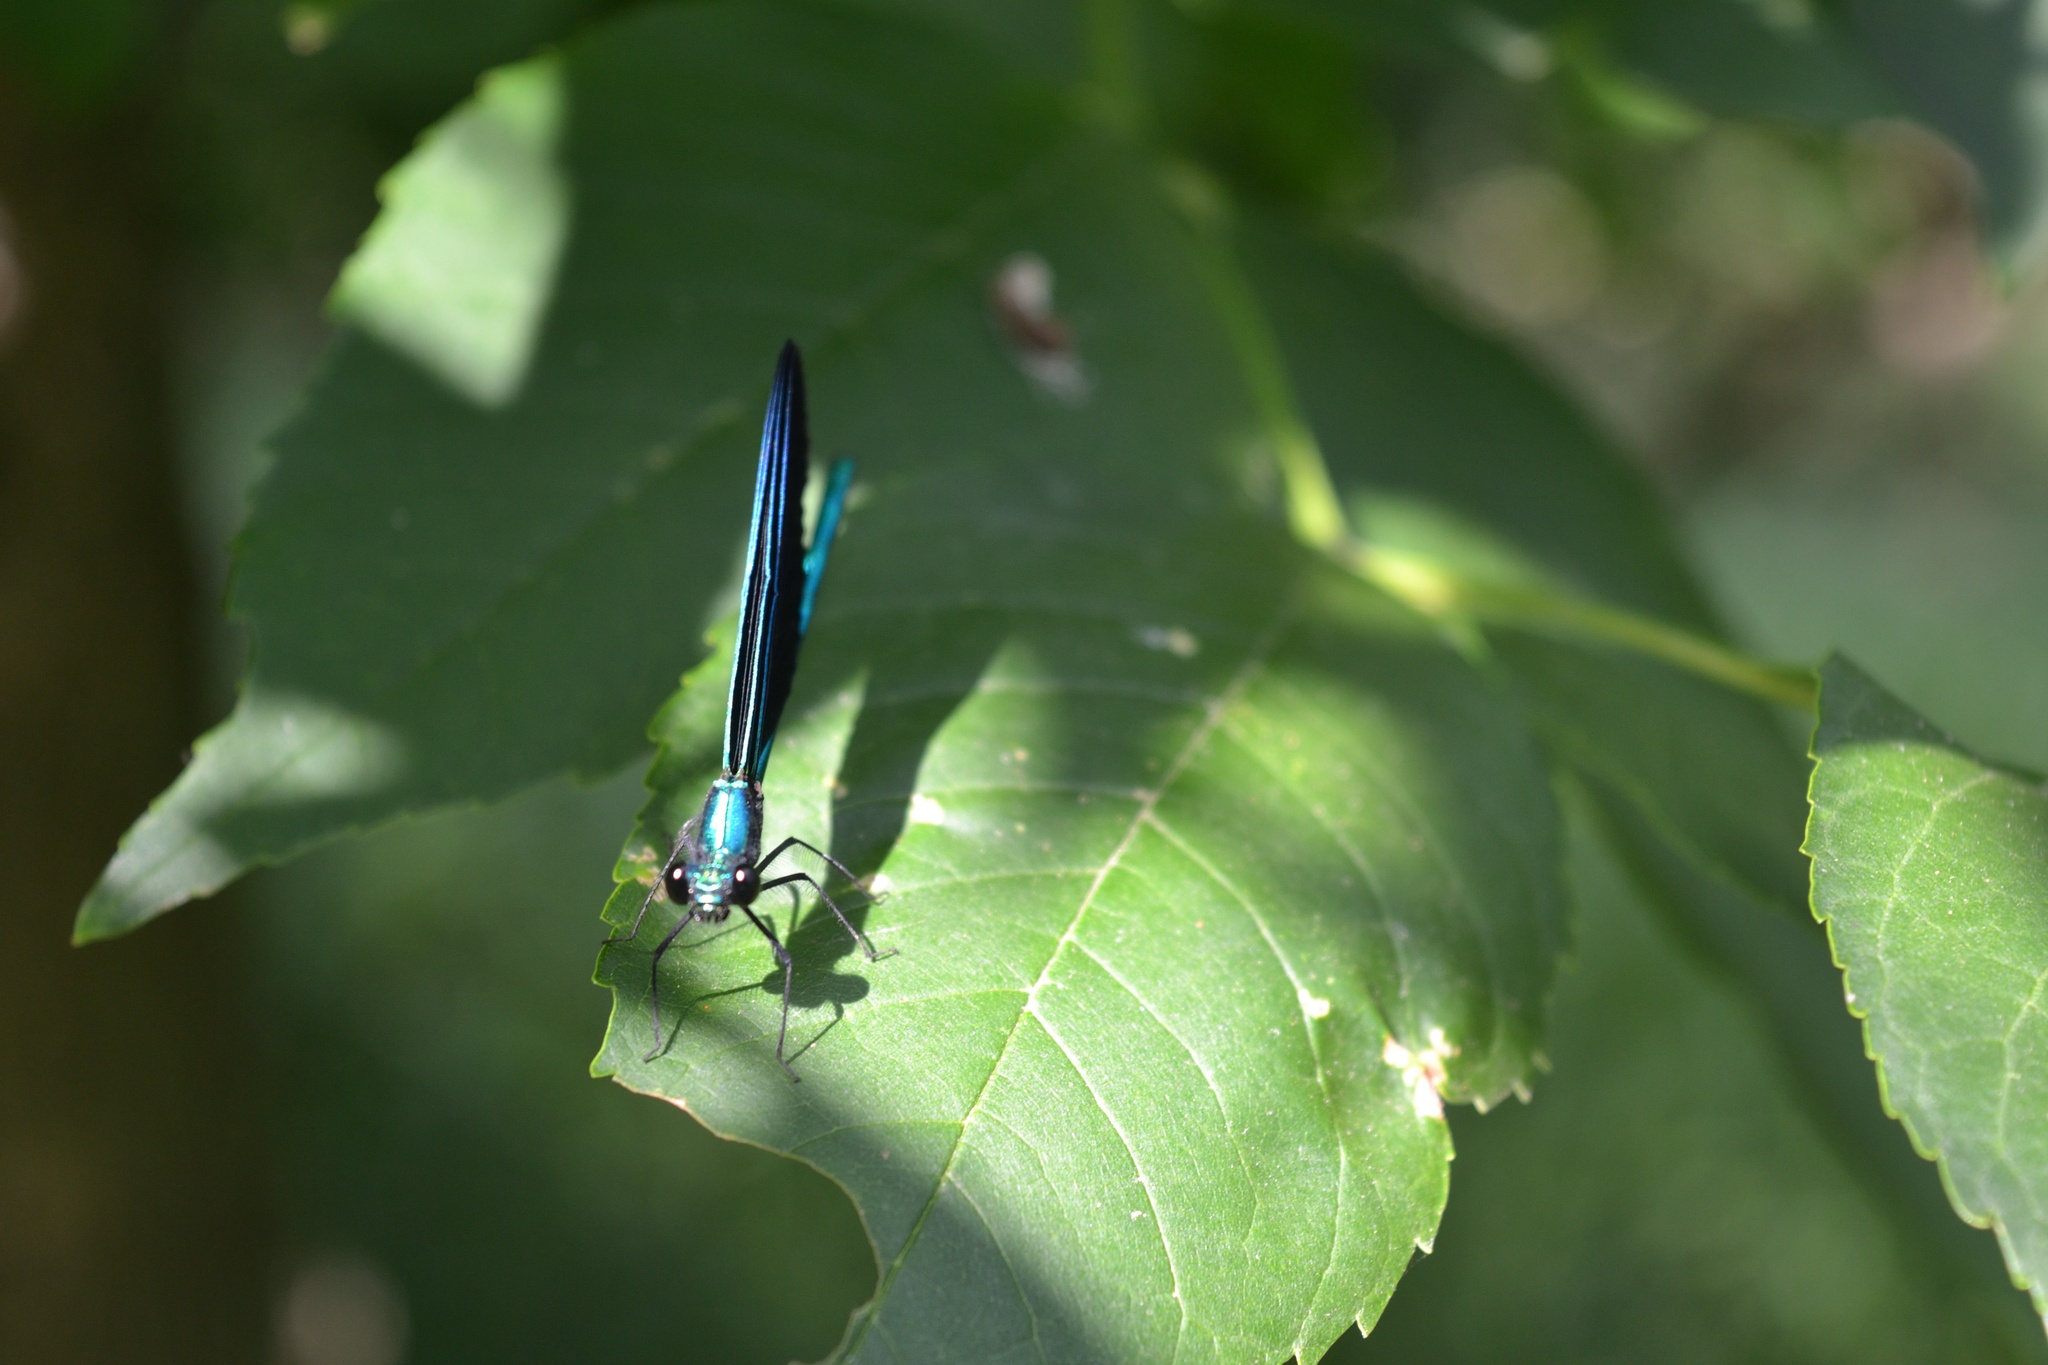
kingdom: Animalia
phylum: Arthropoda
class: Insecta
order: Odonata
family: Calopterygidae
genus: Calopteryx
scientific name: Calopteryx maculata
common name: Ebony jewelwing
